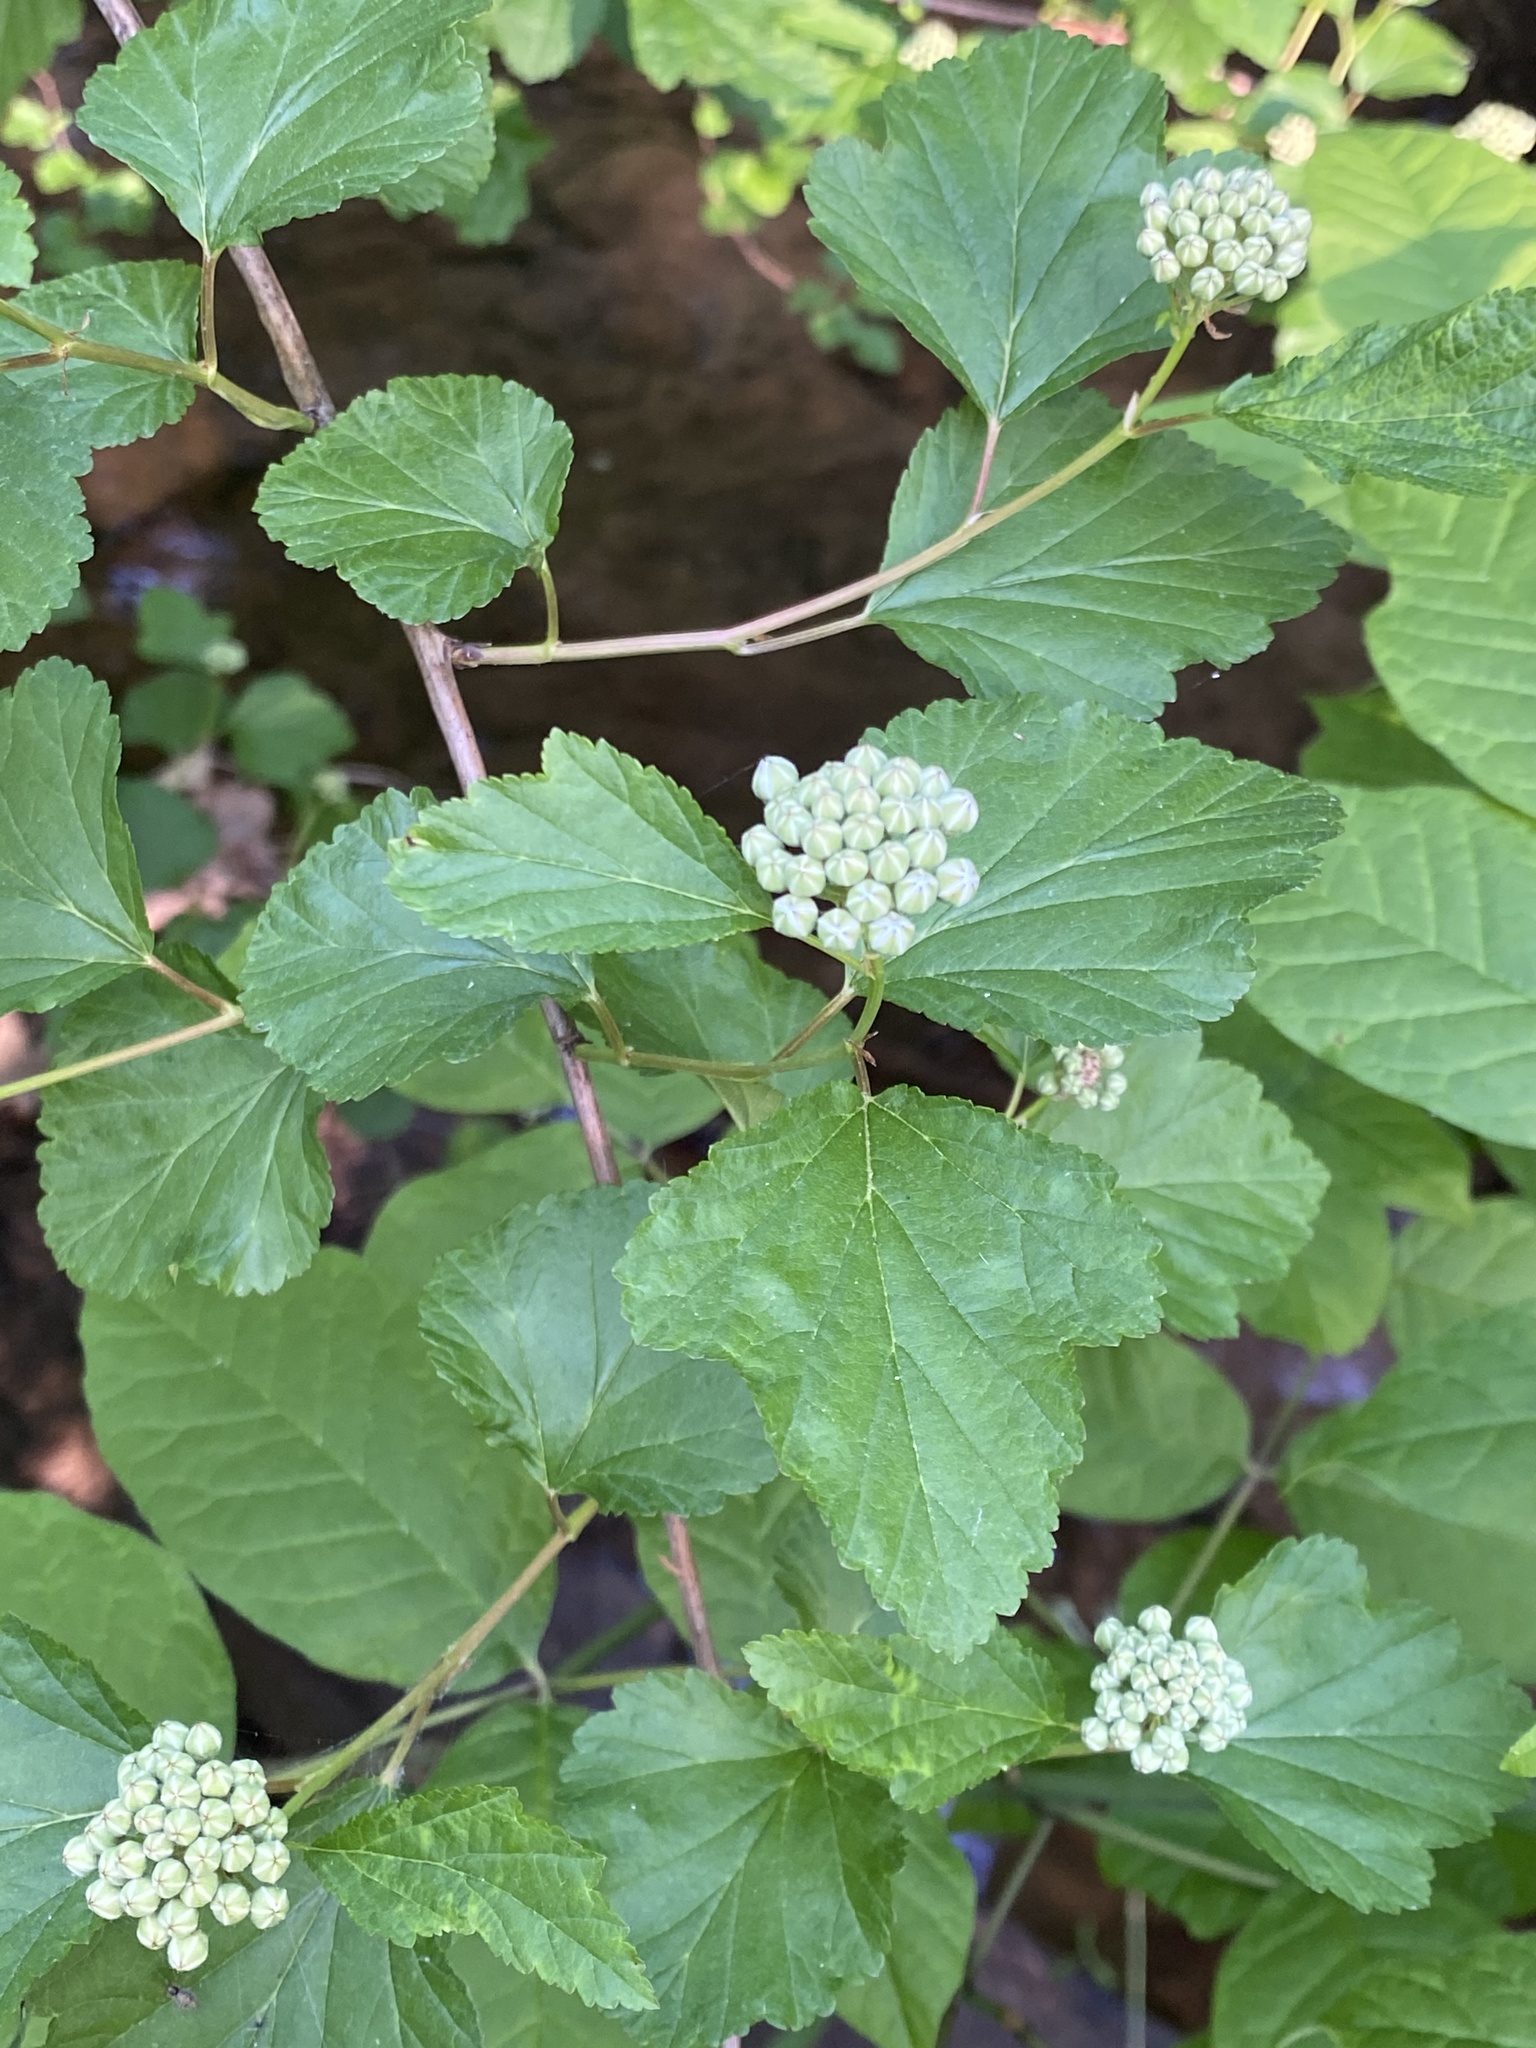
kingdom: Plantae
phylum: Tracheophyta
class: Magnoliopsida
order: Rosales
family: Rosaceae
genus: Physocarpus
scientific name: Physocarpus opulifolius
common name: Ninebark
